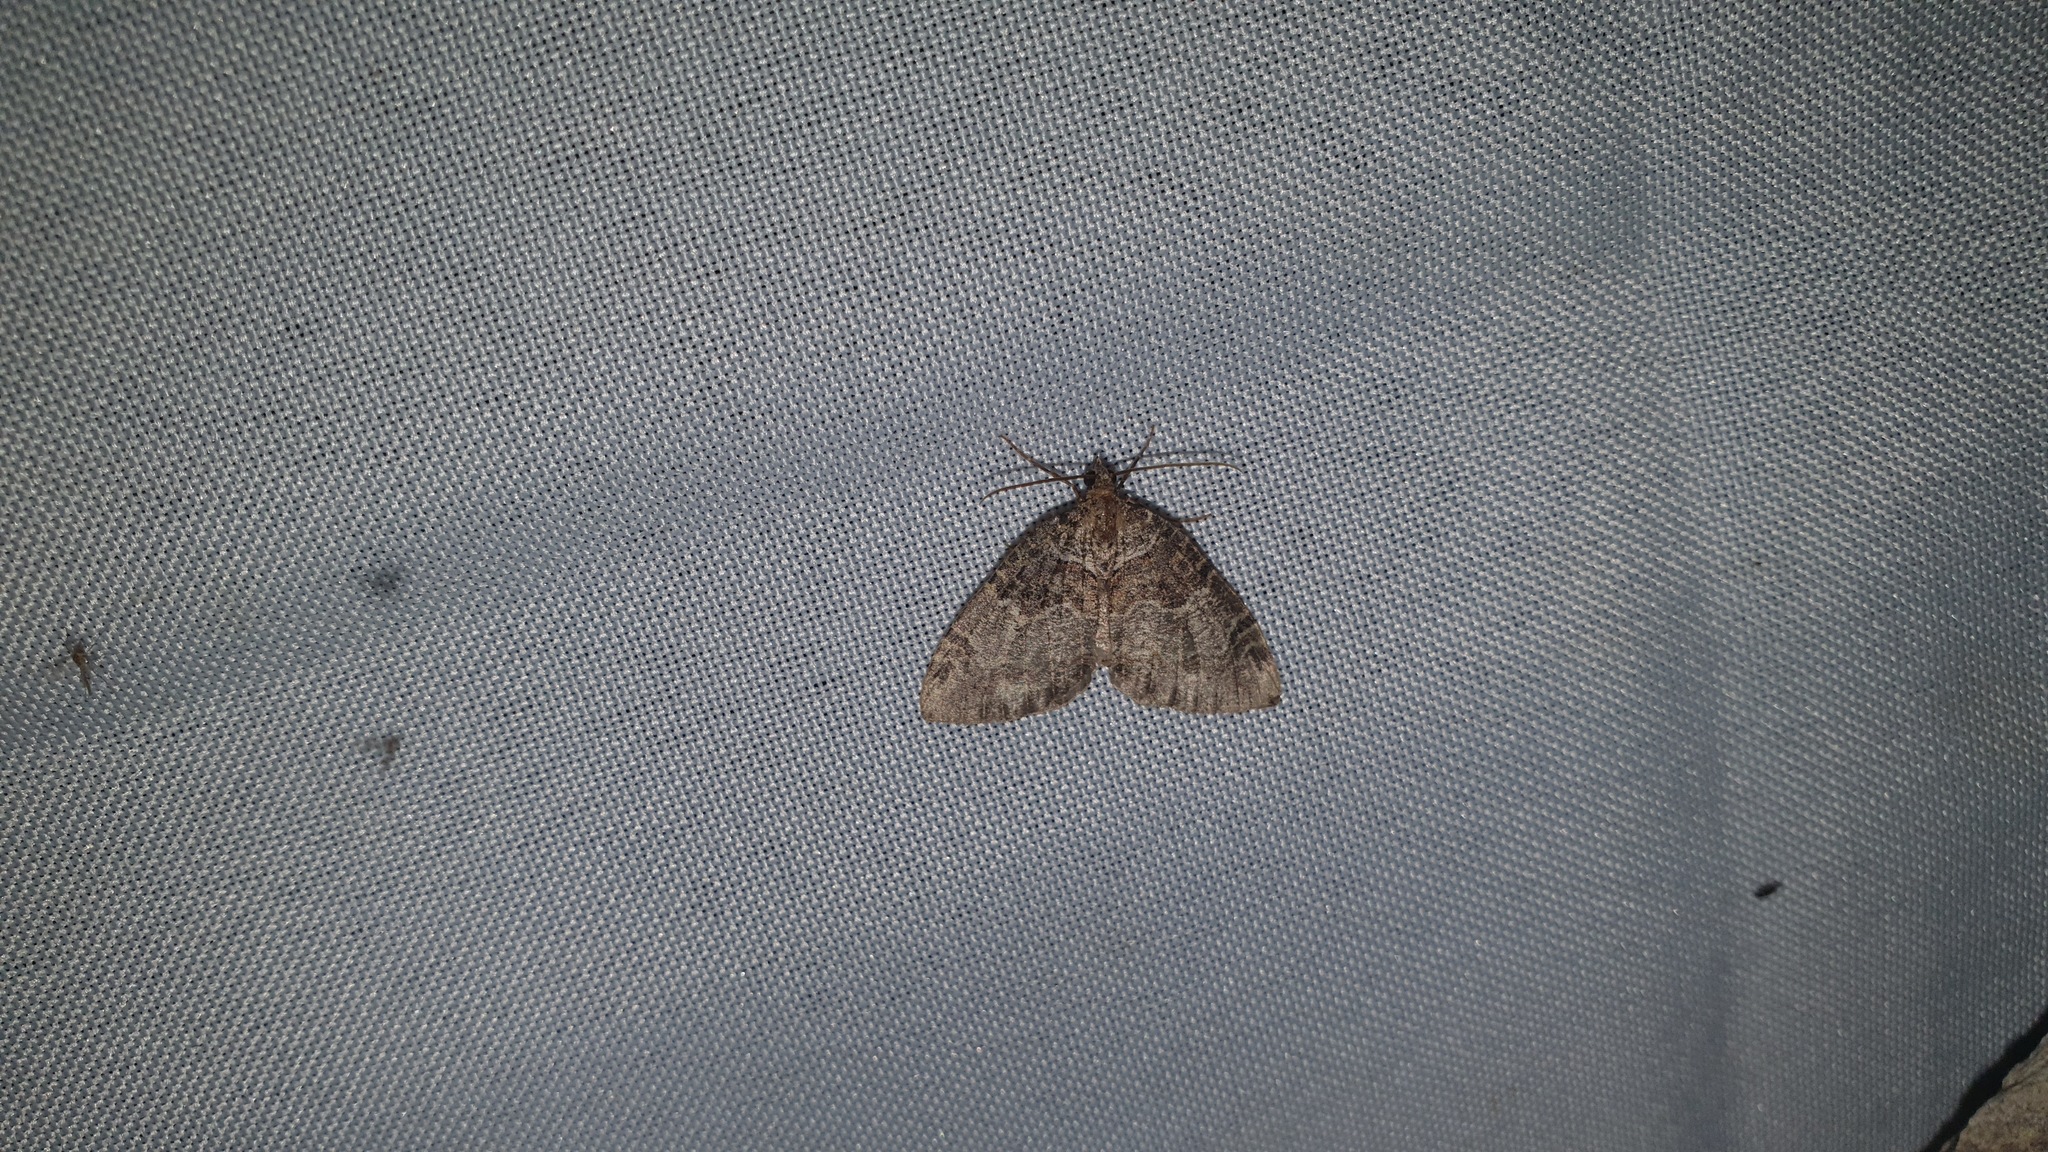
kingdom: Animalia
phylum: Arthropoda
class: Insecta
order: Lepidoptera
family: Geometridae
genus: Hydriomena
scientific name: Hydriomena furcata
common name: July highflyer
